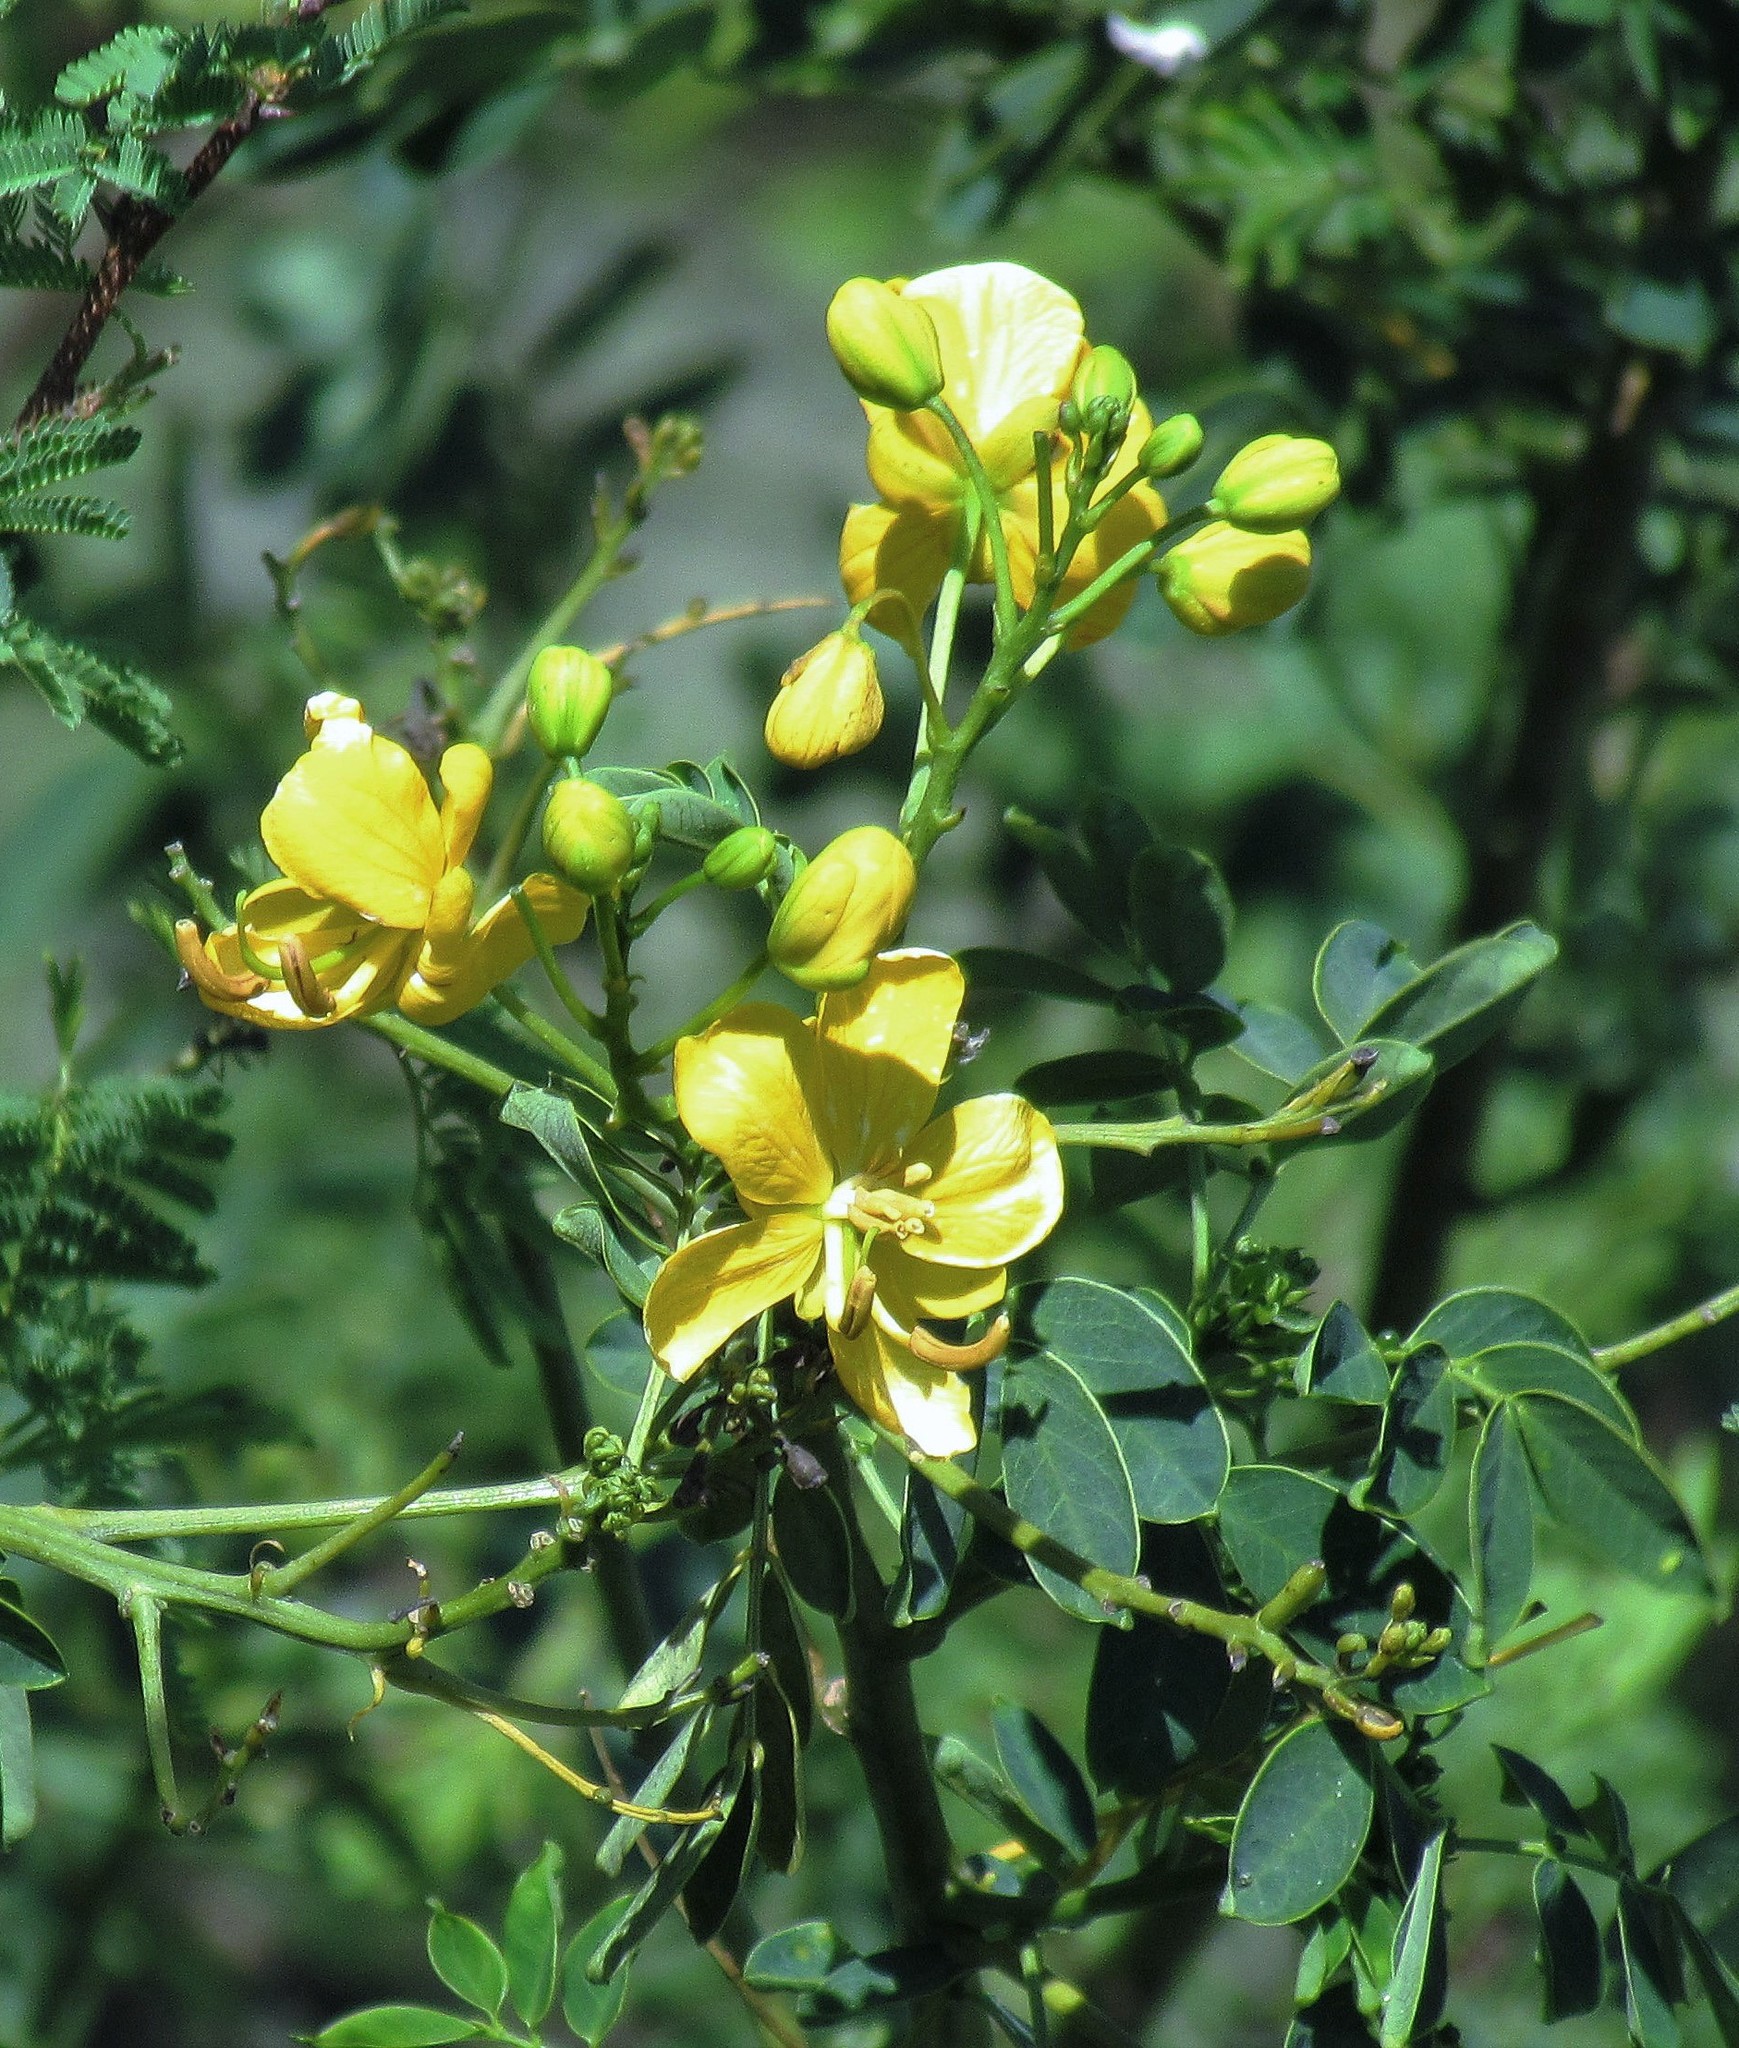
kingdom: Plantae
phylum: Tracheophyta
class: Magnoliopsida
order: Fabales
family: Fabaceae
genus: Senna
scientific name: Senna pendula
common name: Easter cassia
